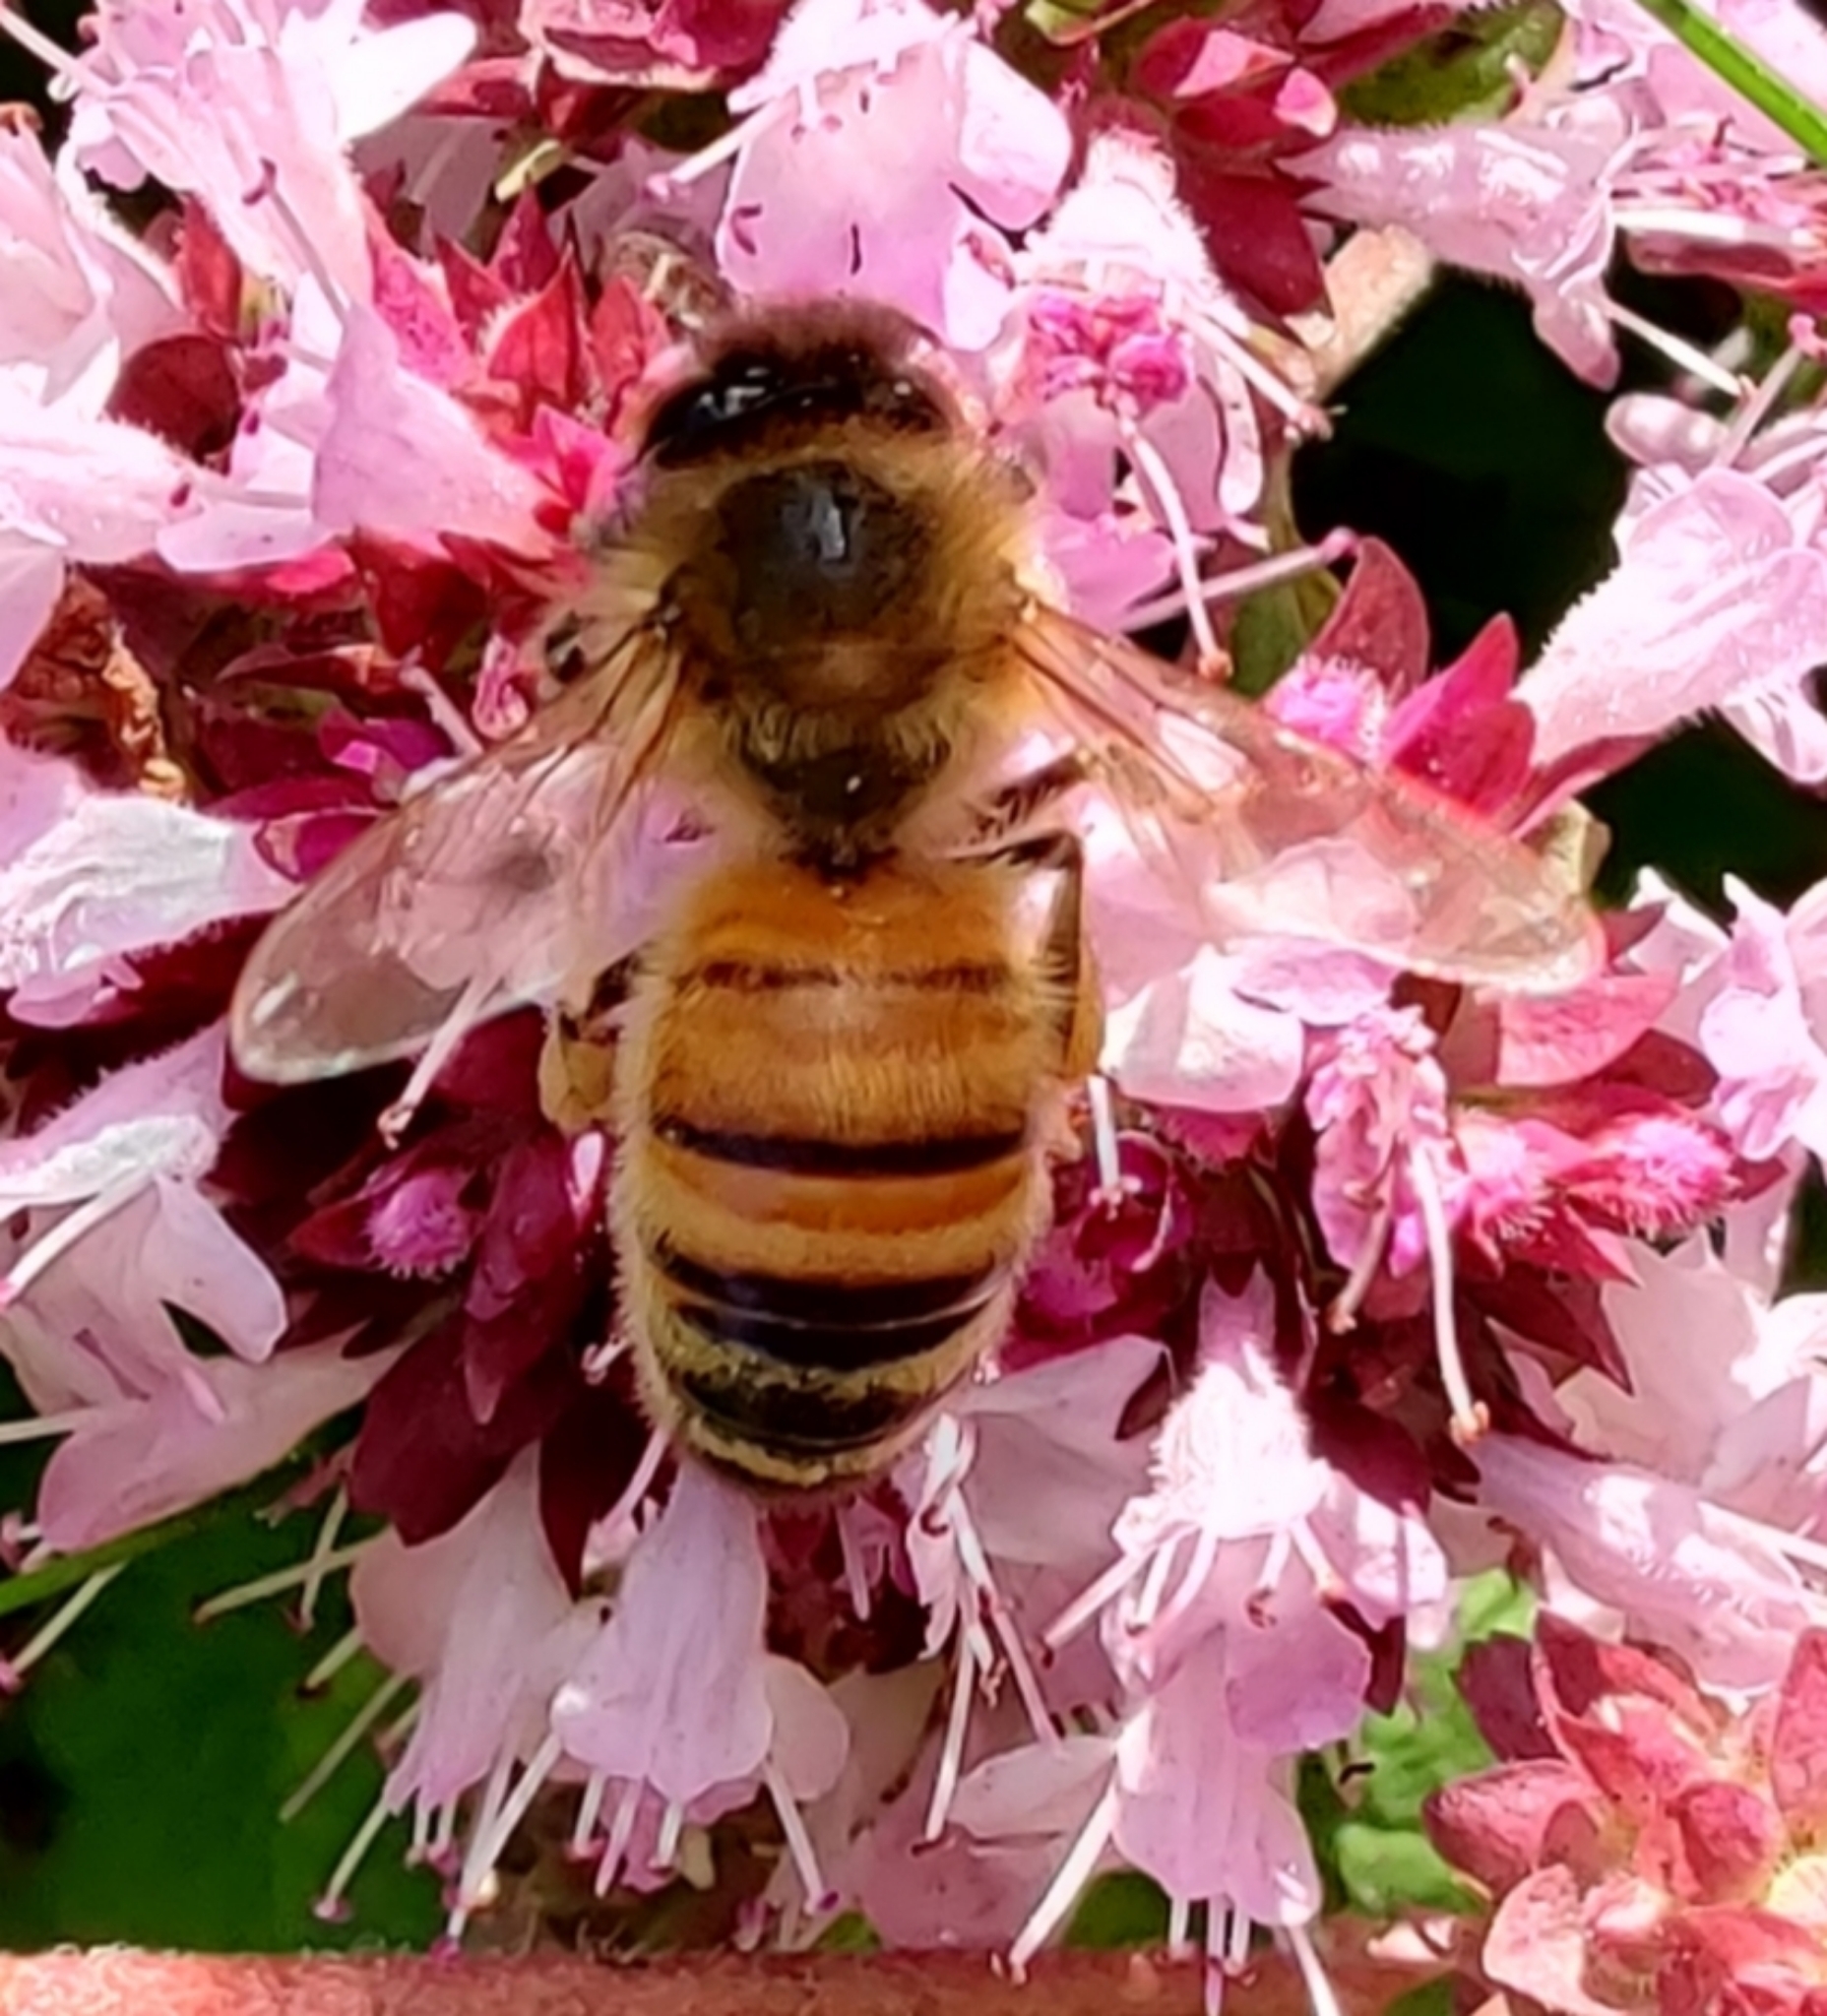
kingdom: Animalia
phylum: Arthropoda
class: Insecta
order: Hymenoptera
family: Apidae
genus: Apis
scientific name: Apis mellifera
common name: Honey bee
